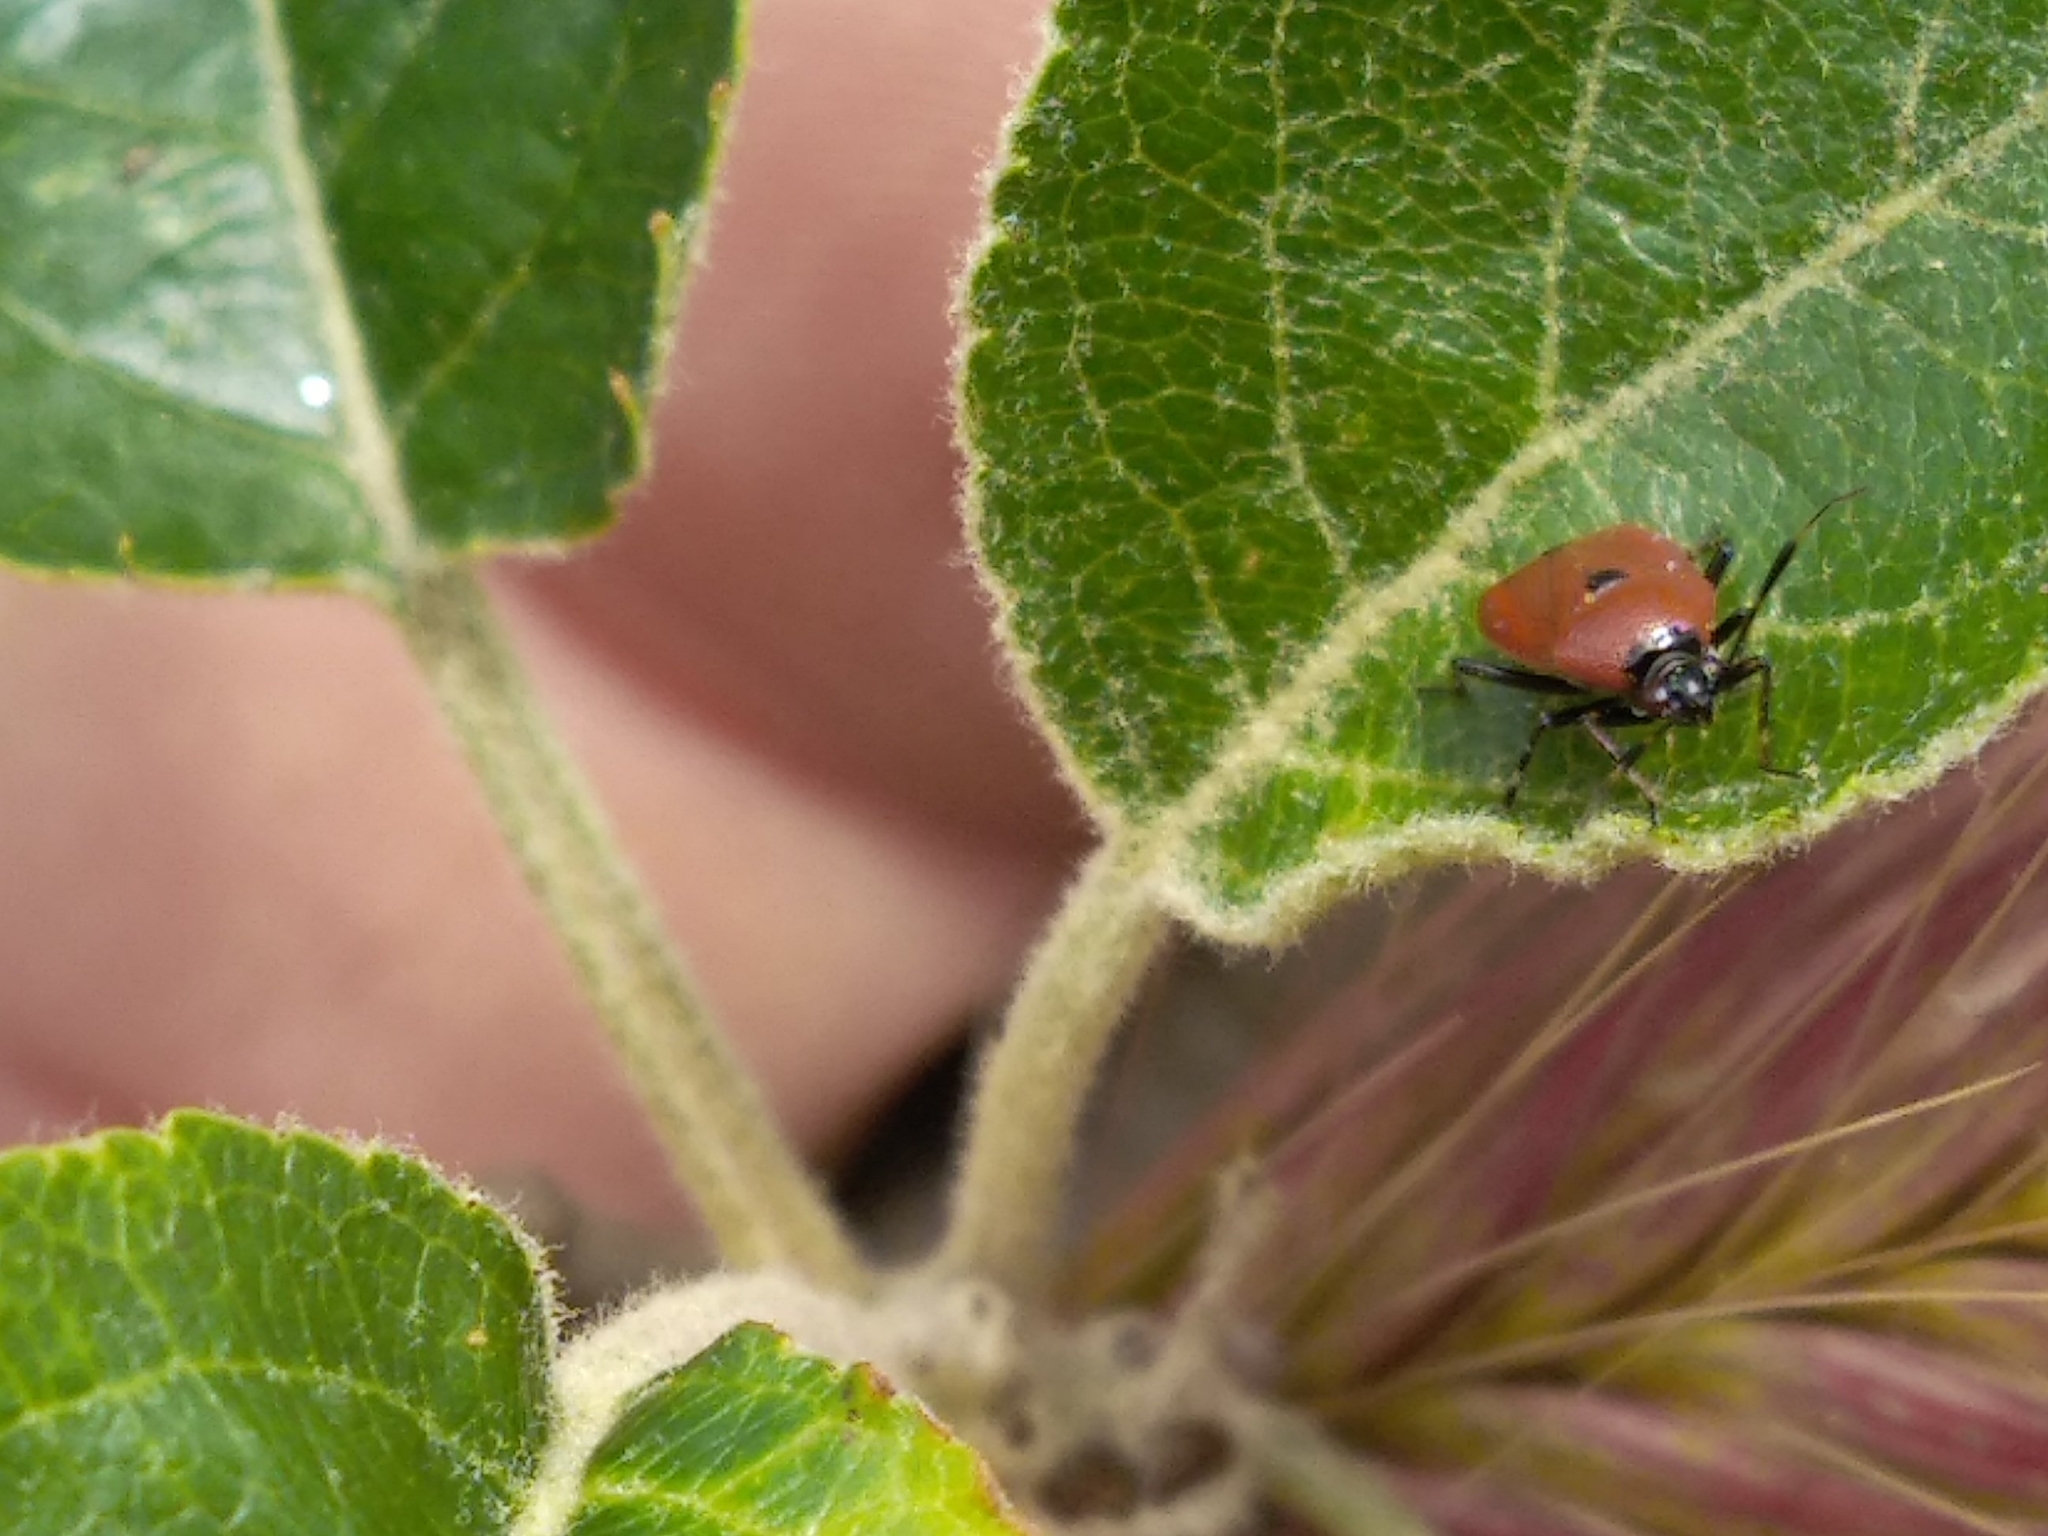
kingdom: Animalia
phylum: Arthropoda
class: Insecta
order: Hemiptera
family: Miridae
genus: Deraeocoris
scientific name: Deraeocoris punctum
